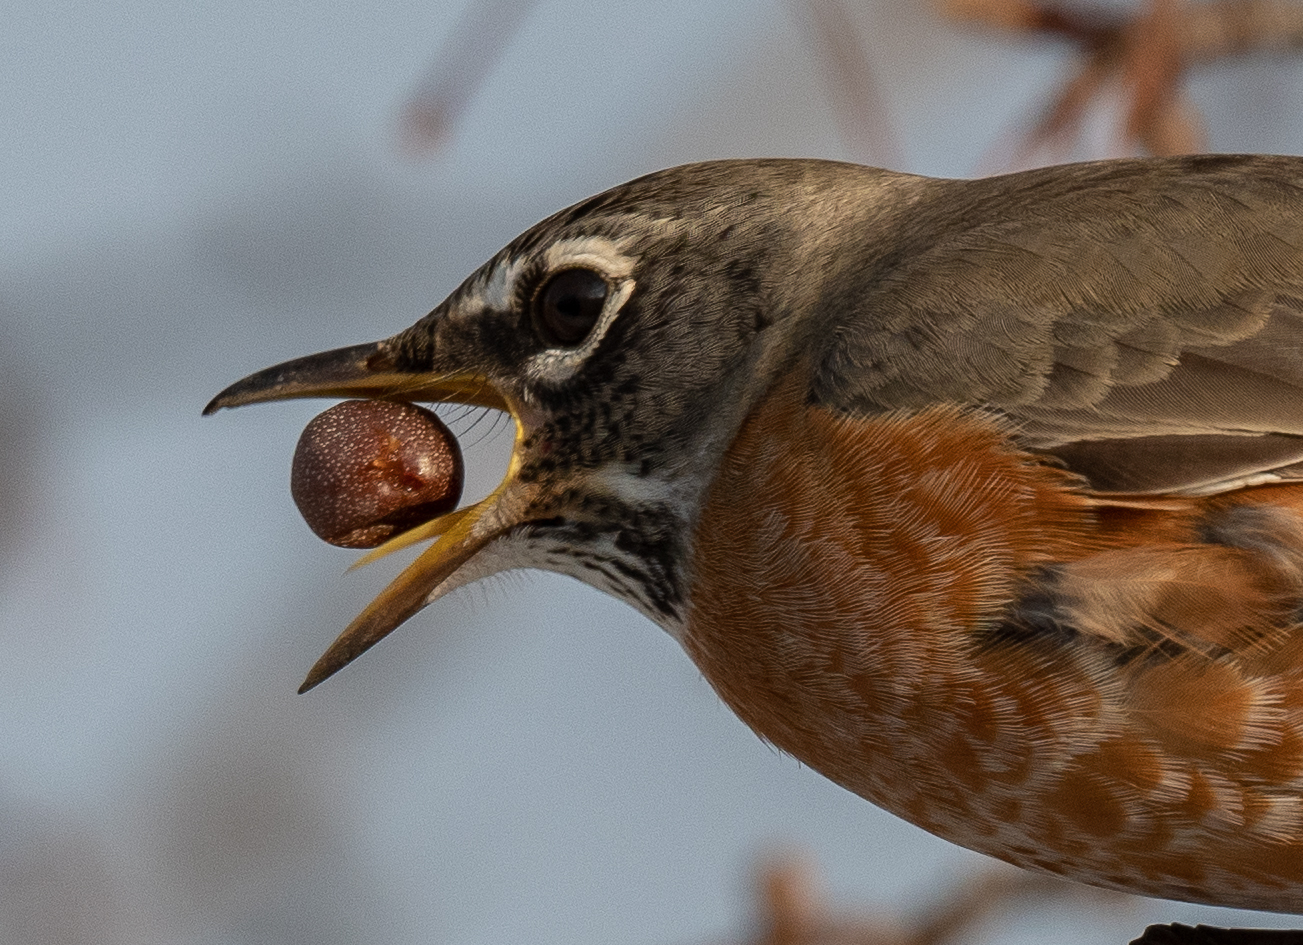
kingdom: Animalia
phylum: Chordata
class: Aves
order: Passeriformes
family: Turdidae
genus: Turdus
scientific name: Turdus migratorius
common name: American robin
